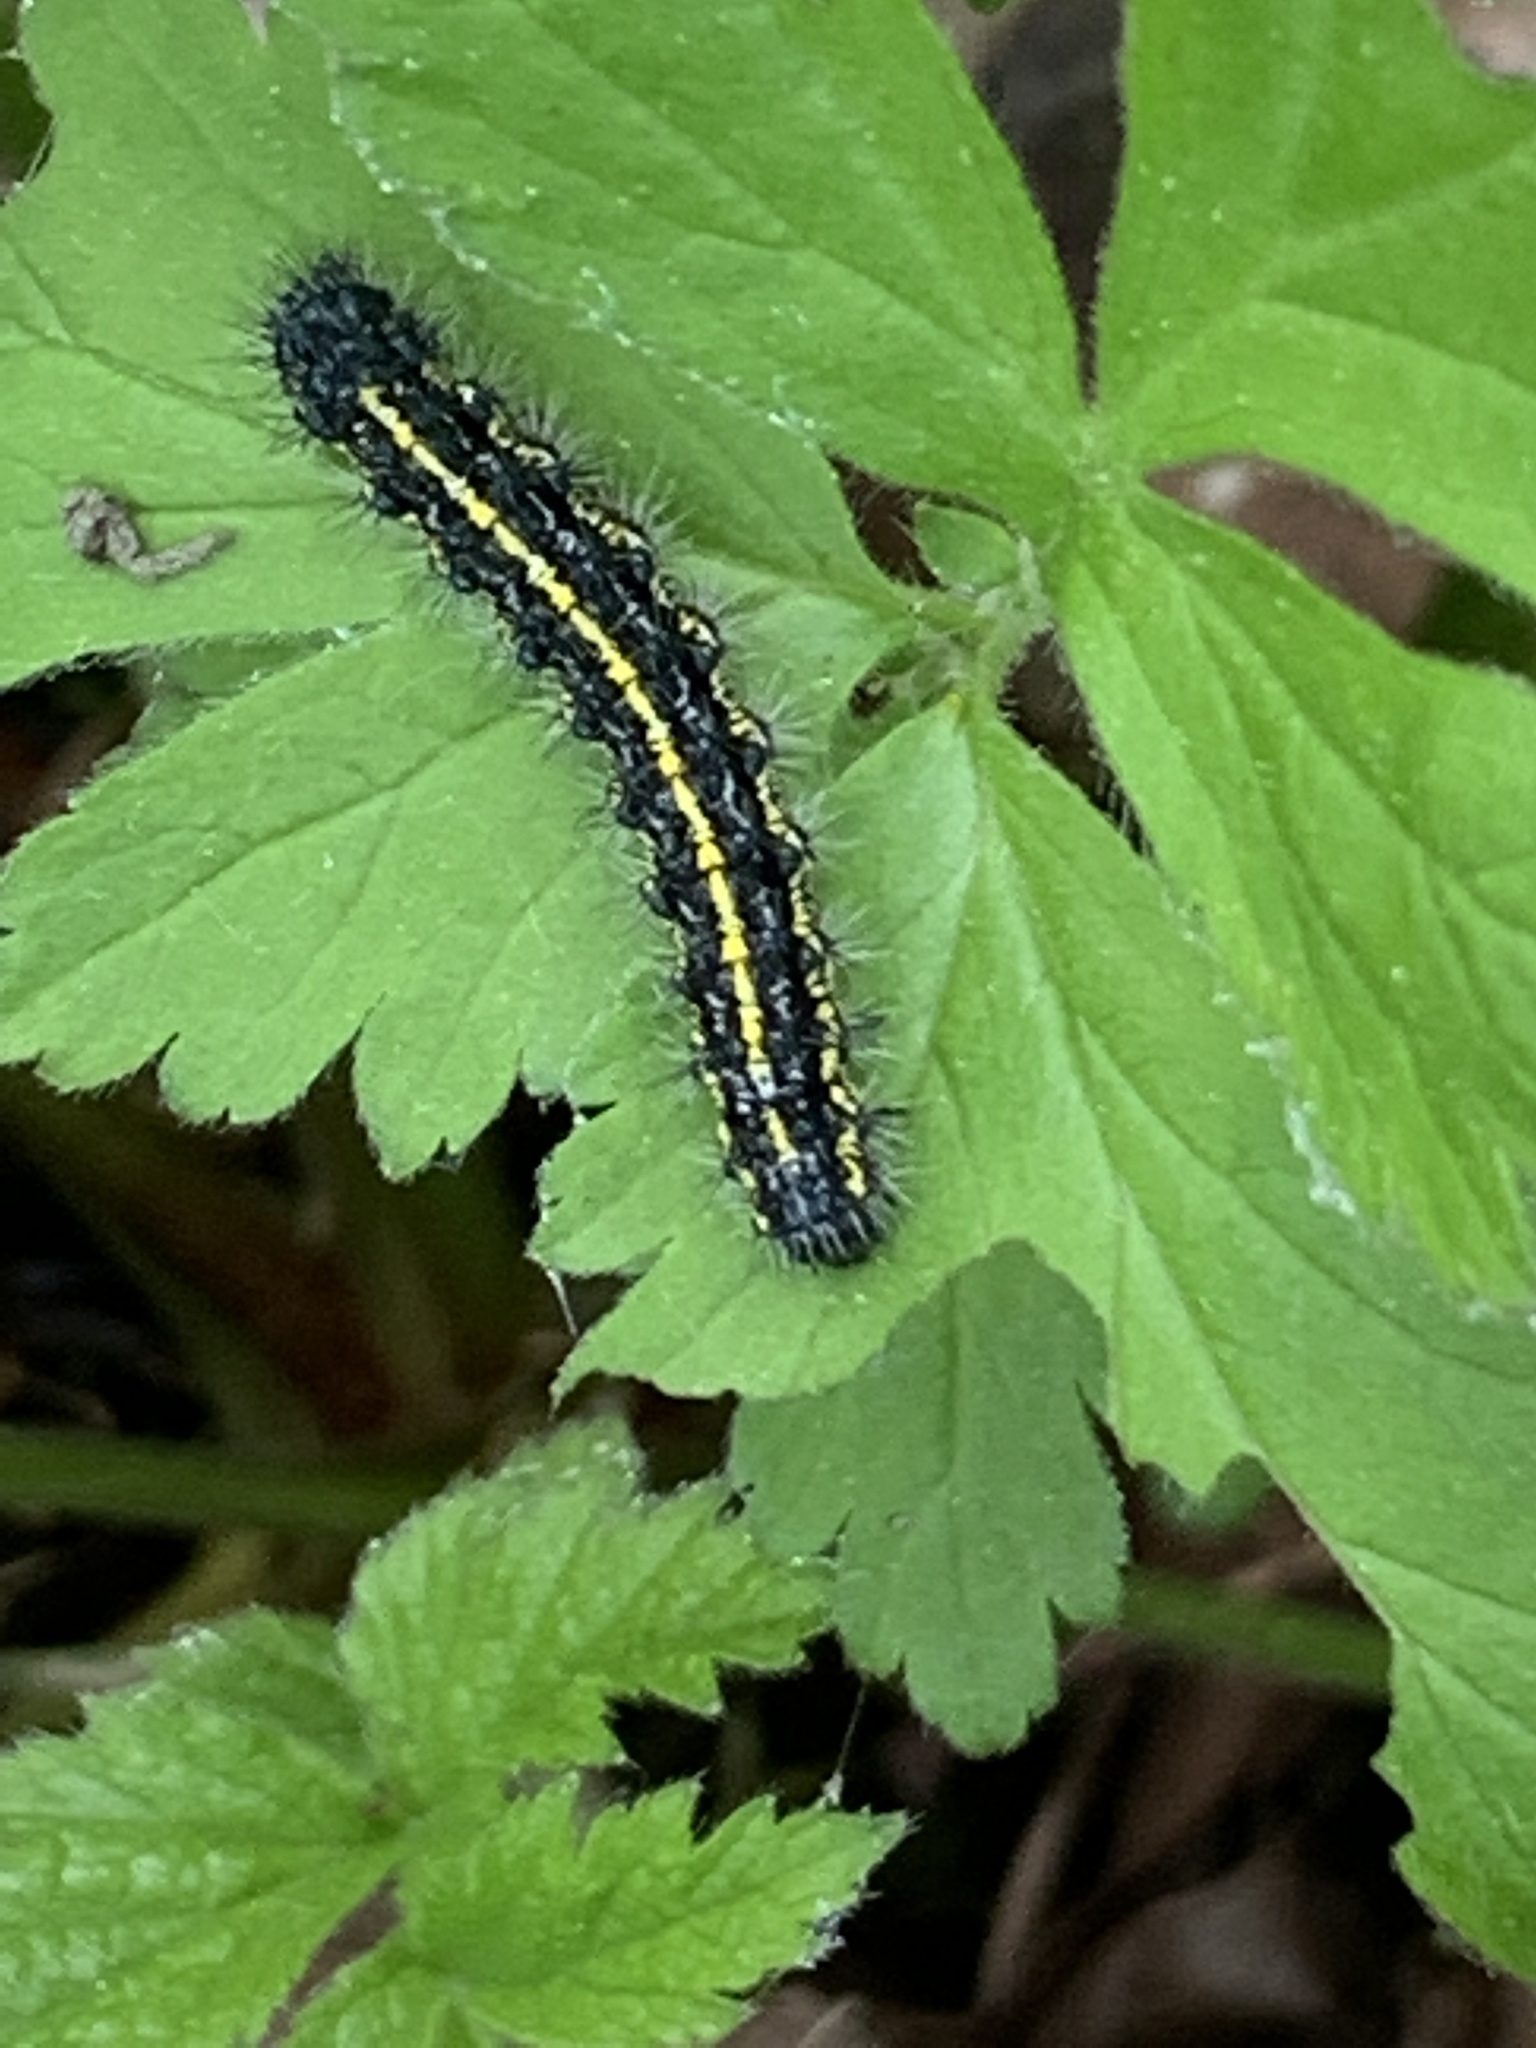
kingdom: Animalia
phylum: Arthropoda
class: Insecta
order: Lepidoptera
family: Erebidae
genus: Haploa
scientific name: Haploa confusa
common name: Confused haploa moth
